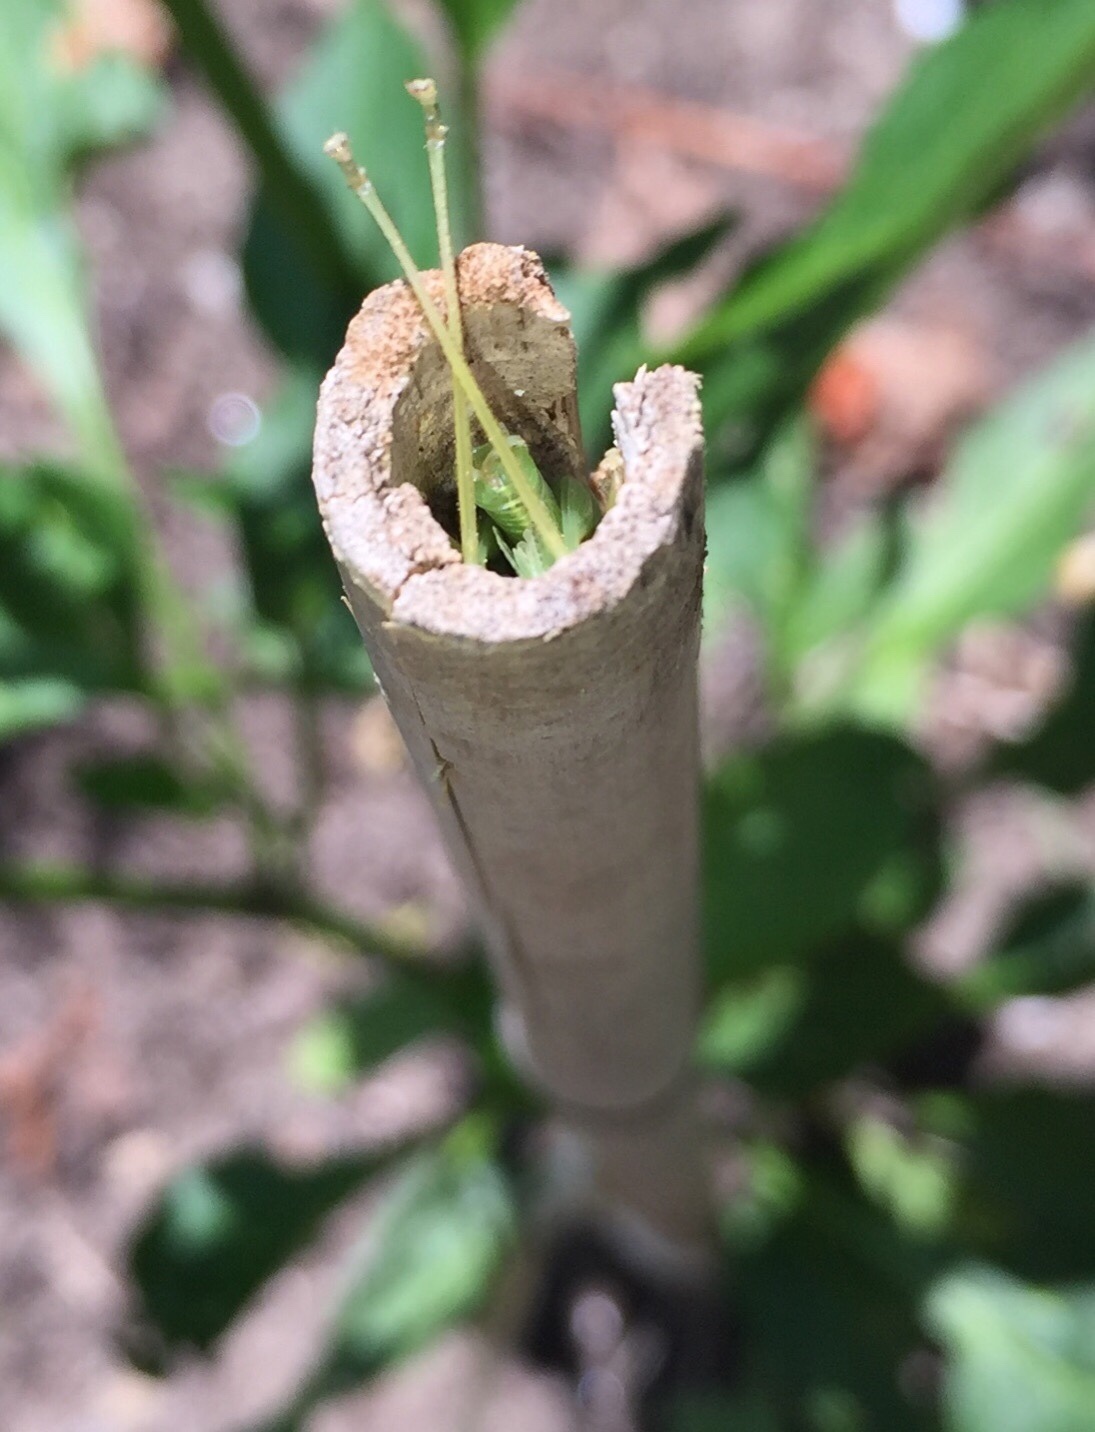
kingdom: Animalia
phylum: Arthropoda
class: Insecta
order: Orthoptera
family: Tettigoniidae
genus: Meconema
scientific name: Meconema thalassinum
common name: Oak bush-cricket
